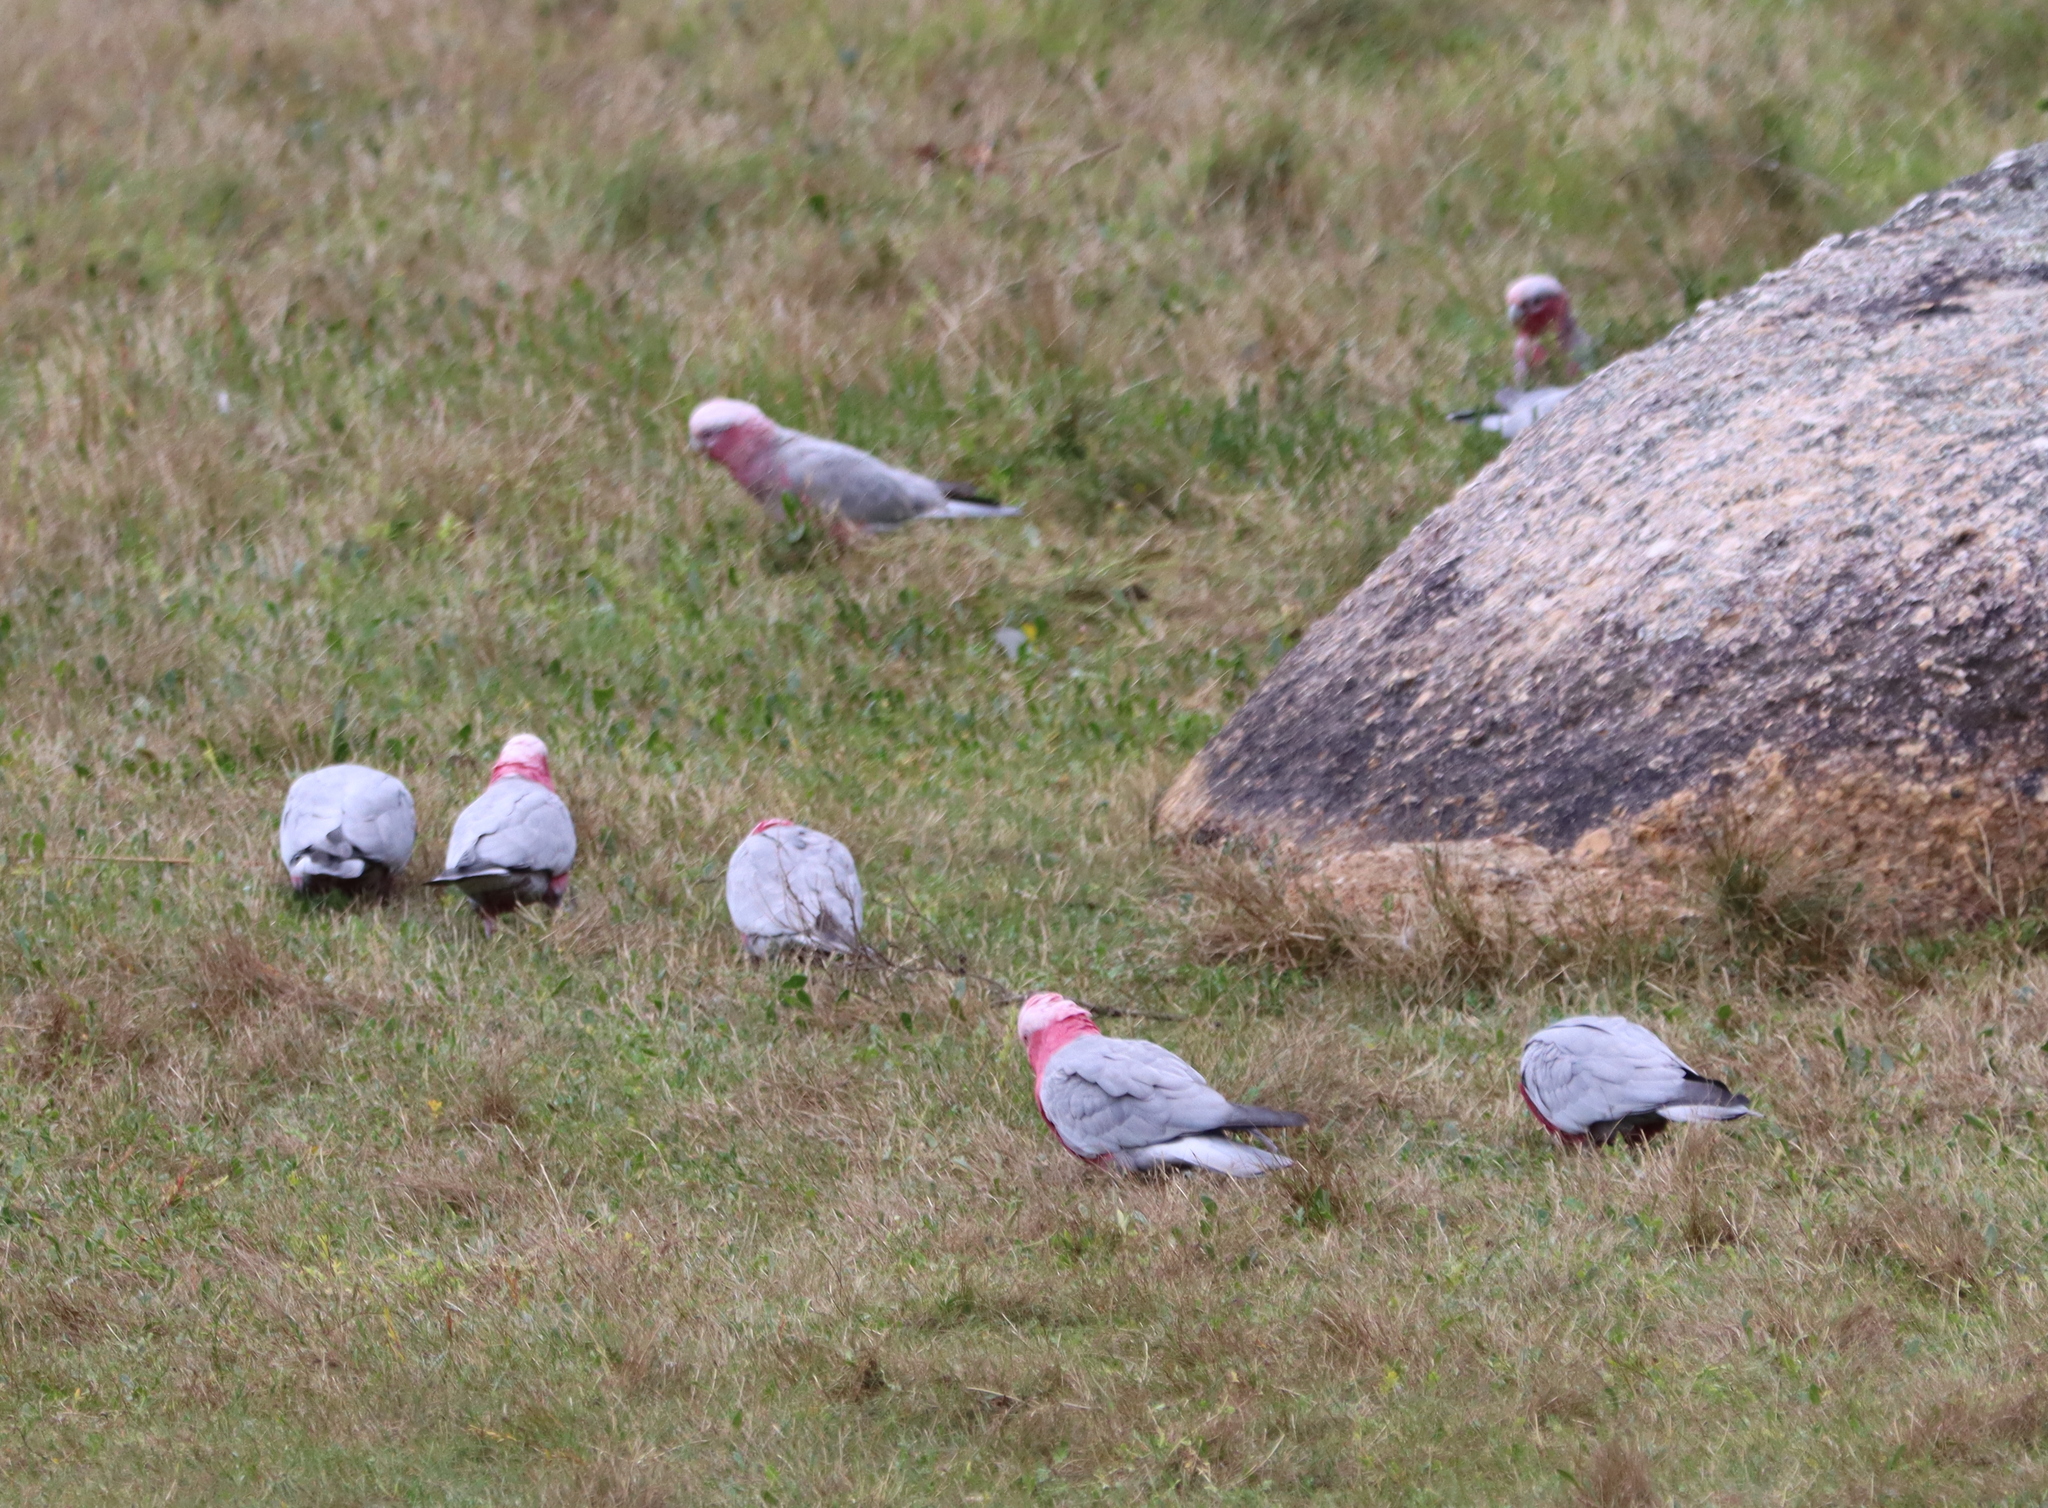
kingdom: Animalia
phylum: Chordata
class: Aves
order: Psittaciformes
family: Psittacidae
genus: Eolophus
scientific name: Eolophus roseicapilla
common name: Galah
